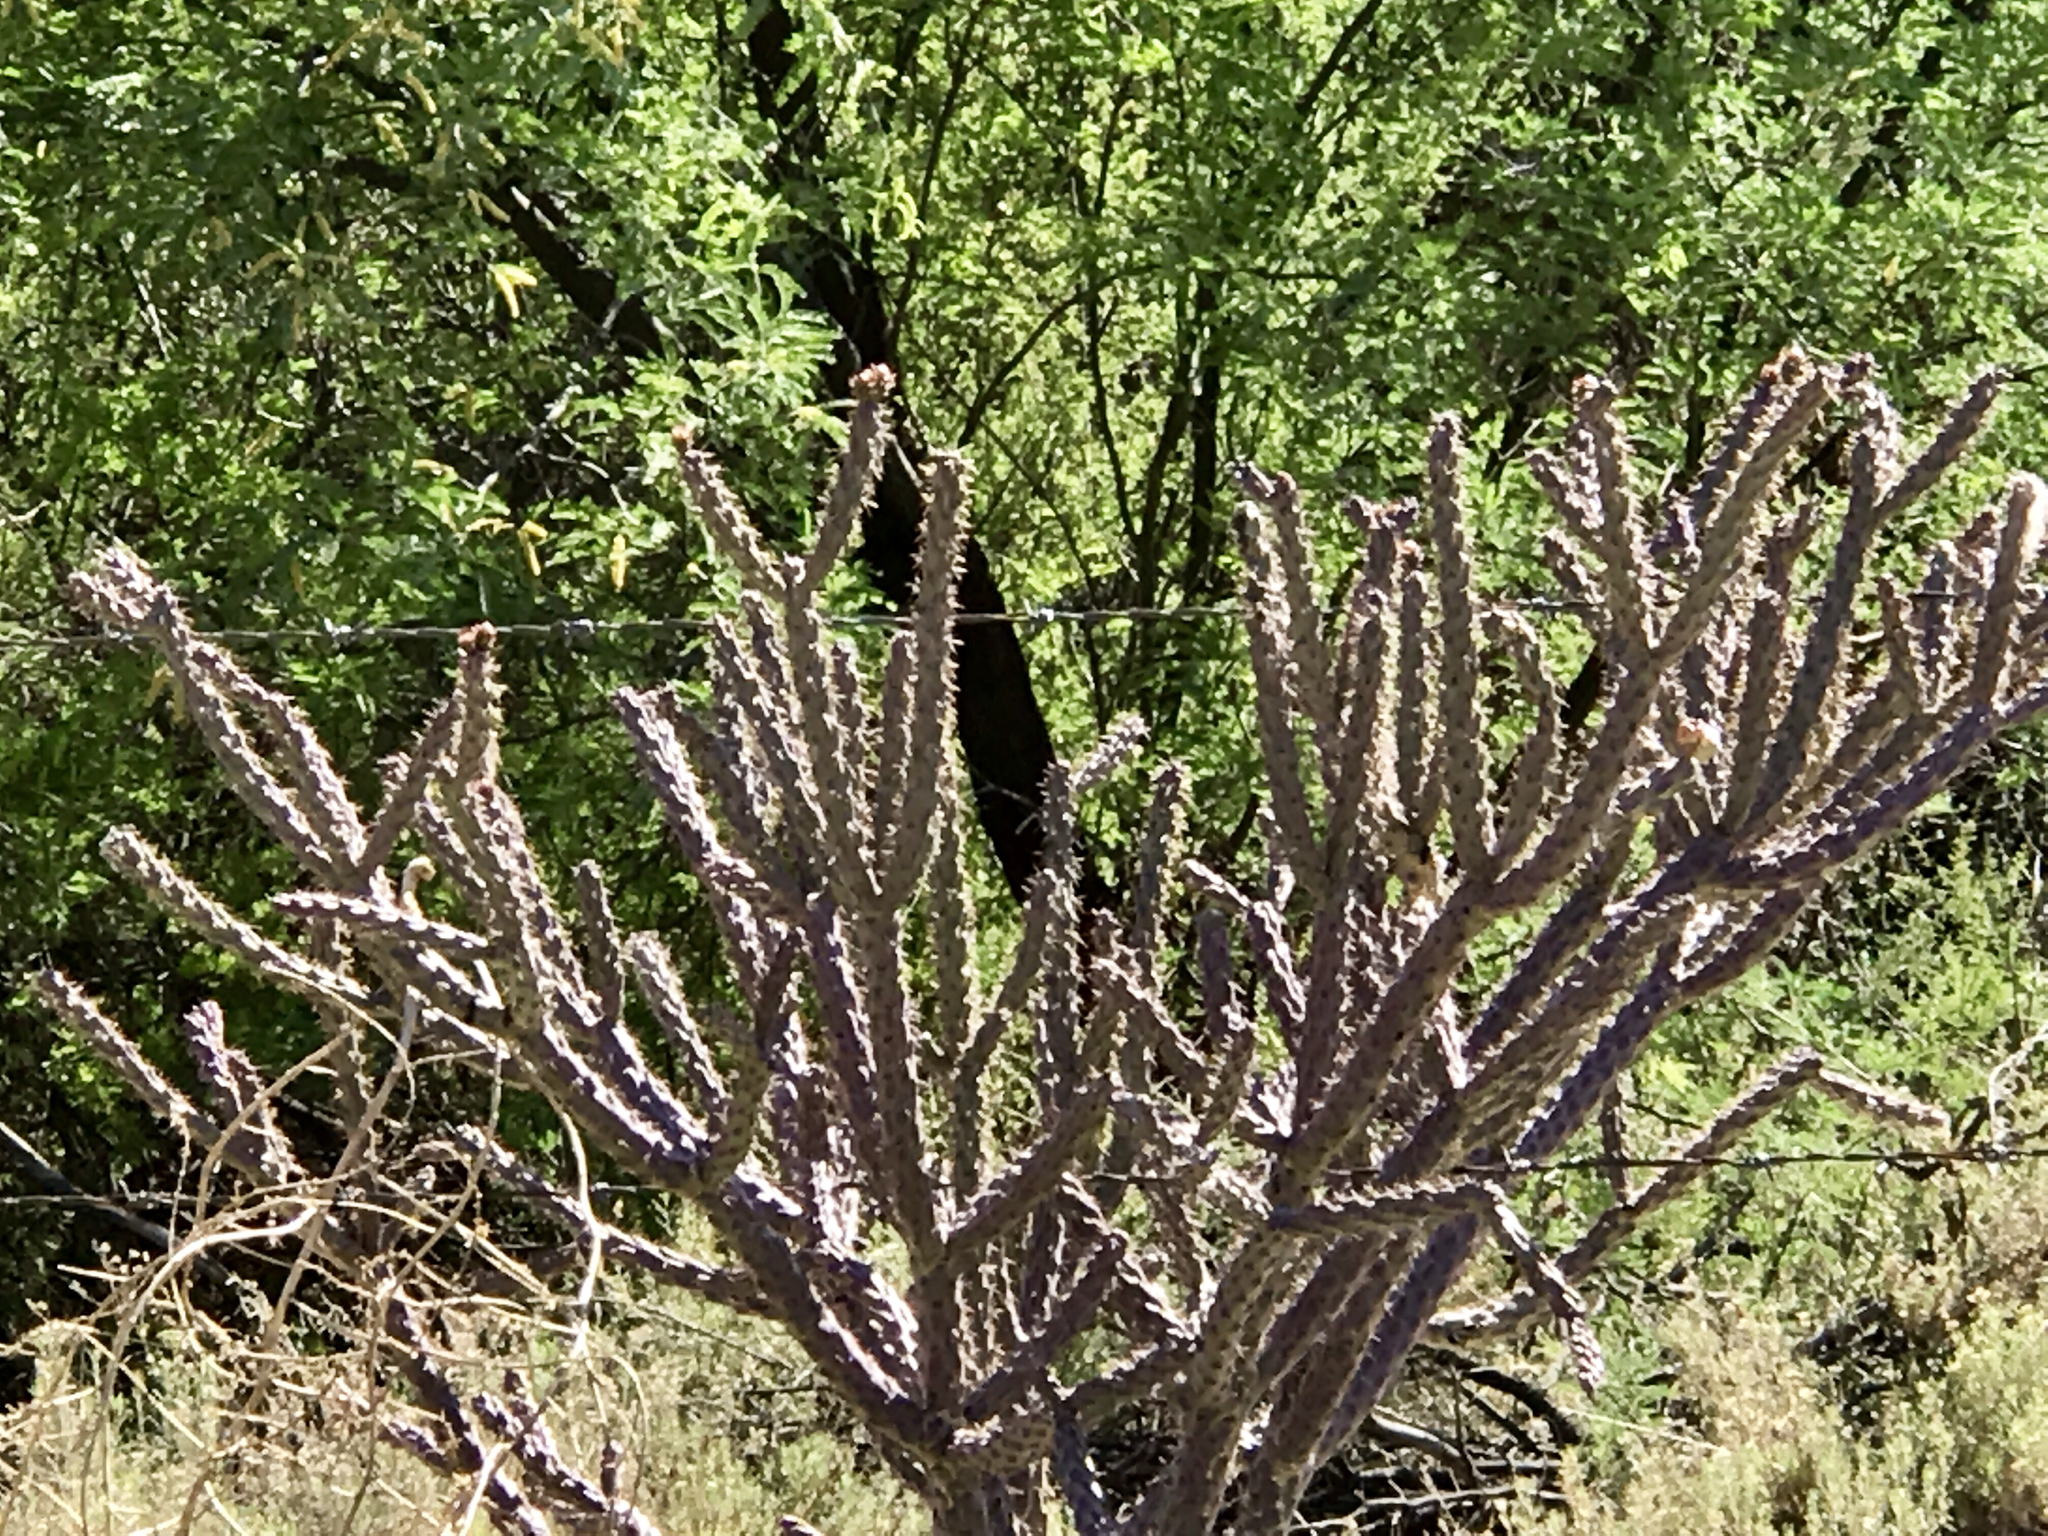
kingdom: Plantae
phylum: Tracheophyta
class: Magnoliopsida
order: Caryophyllales
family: Cactaceae
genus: Cylindropuntia
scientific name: Cylindropuntia acanthocarpa
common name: Buckhorn cholla
